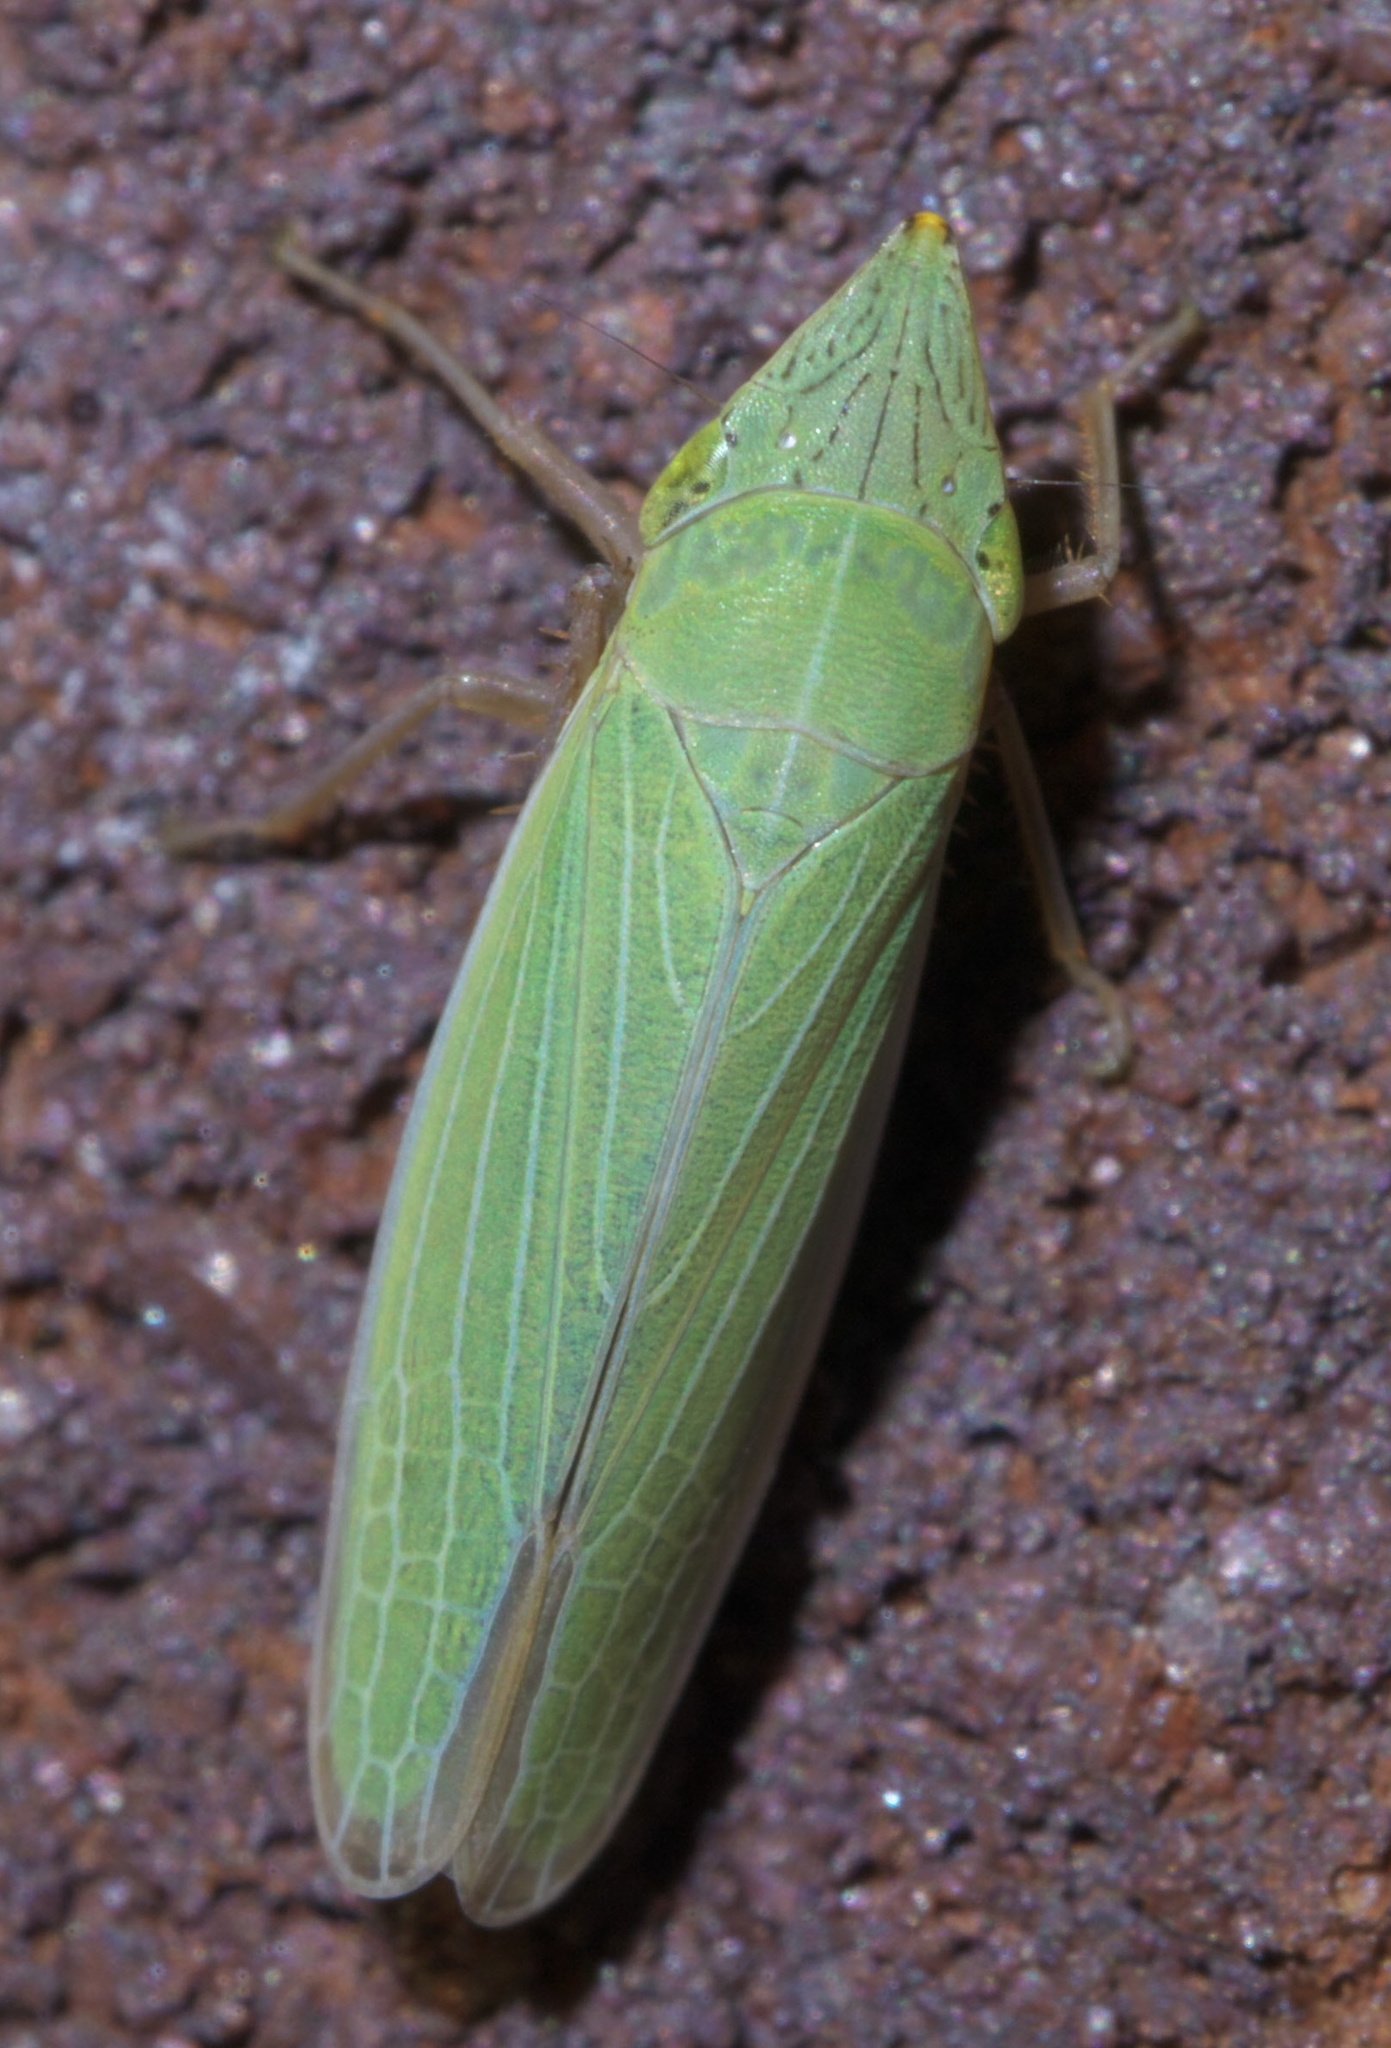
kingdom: Animalia
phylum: Arthropoda
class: Insecta
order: Hemiptera
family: Cicadellidae
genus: Draeculacephala
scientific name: Draeculacephala navicula
